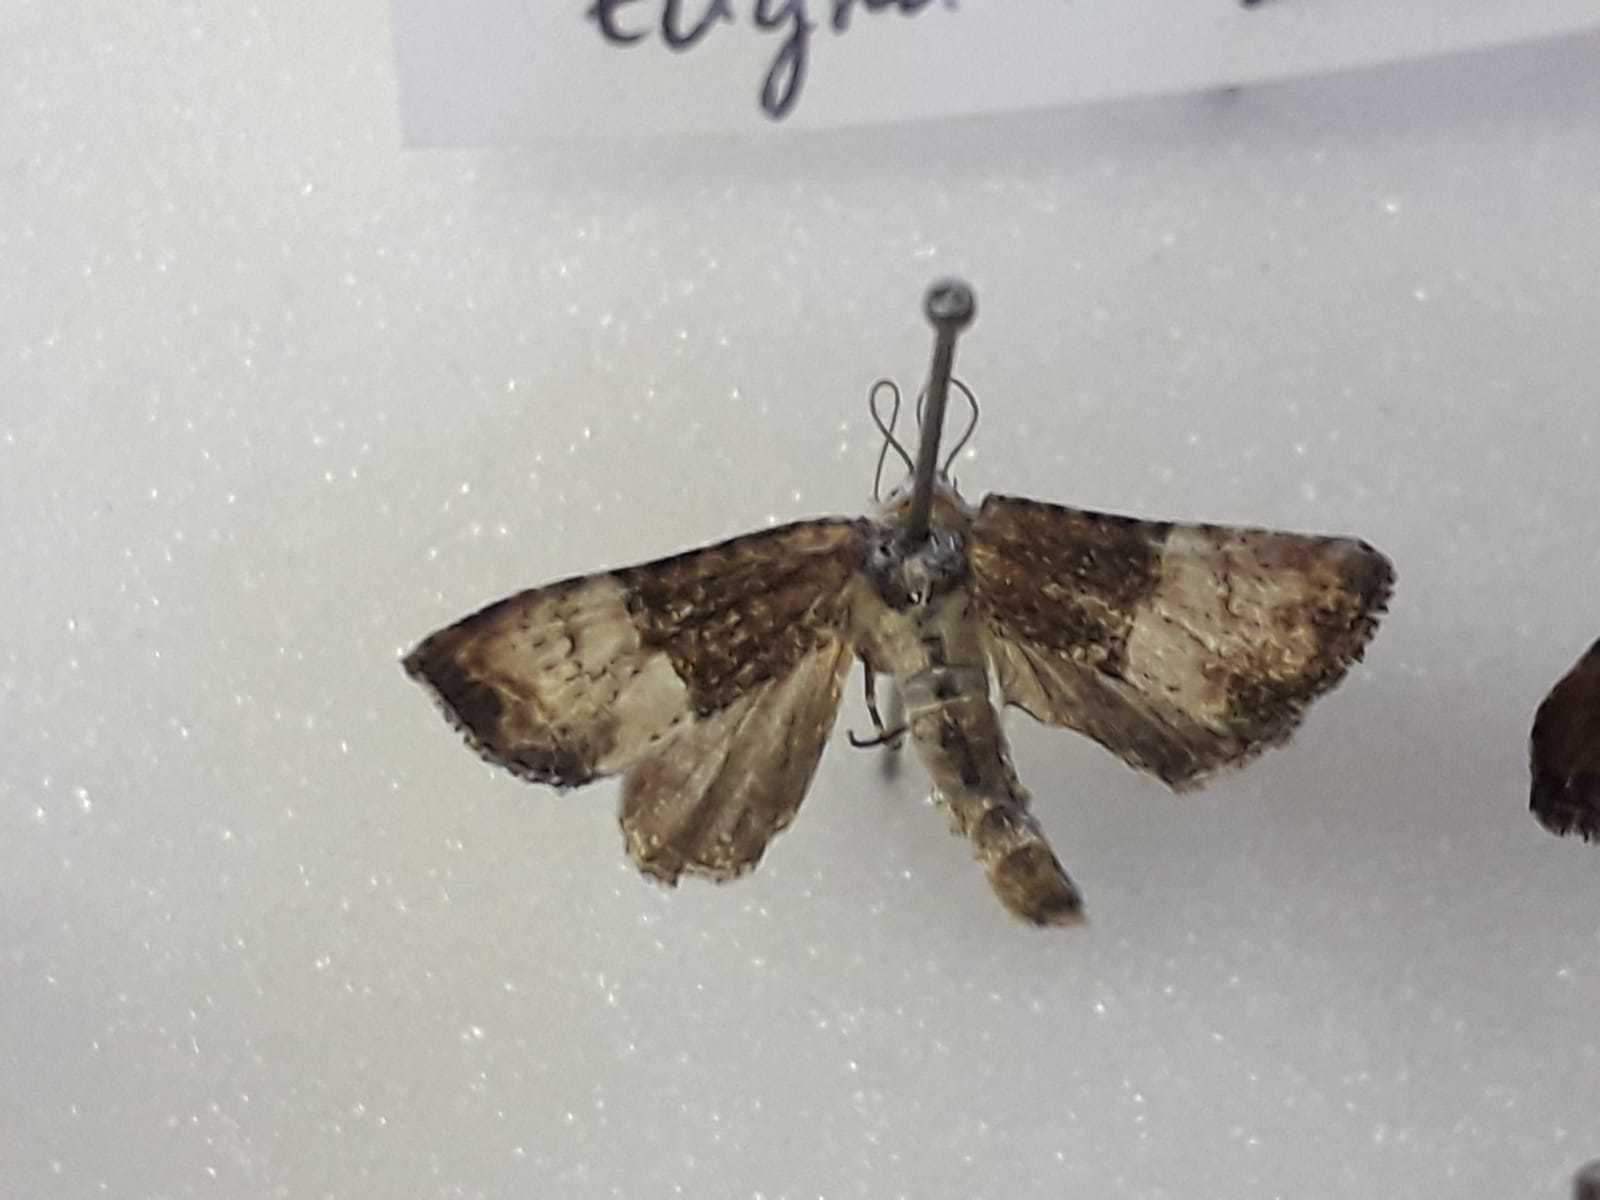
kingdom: Animalia
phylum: Arthropoda
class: Insecta
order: Lepidoptera
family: Noctuidae
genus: Mesoligia
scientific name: Mesoligia furuncula
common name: Cloaked minor
